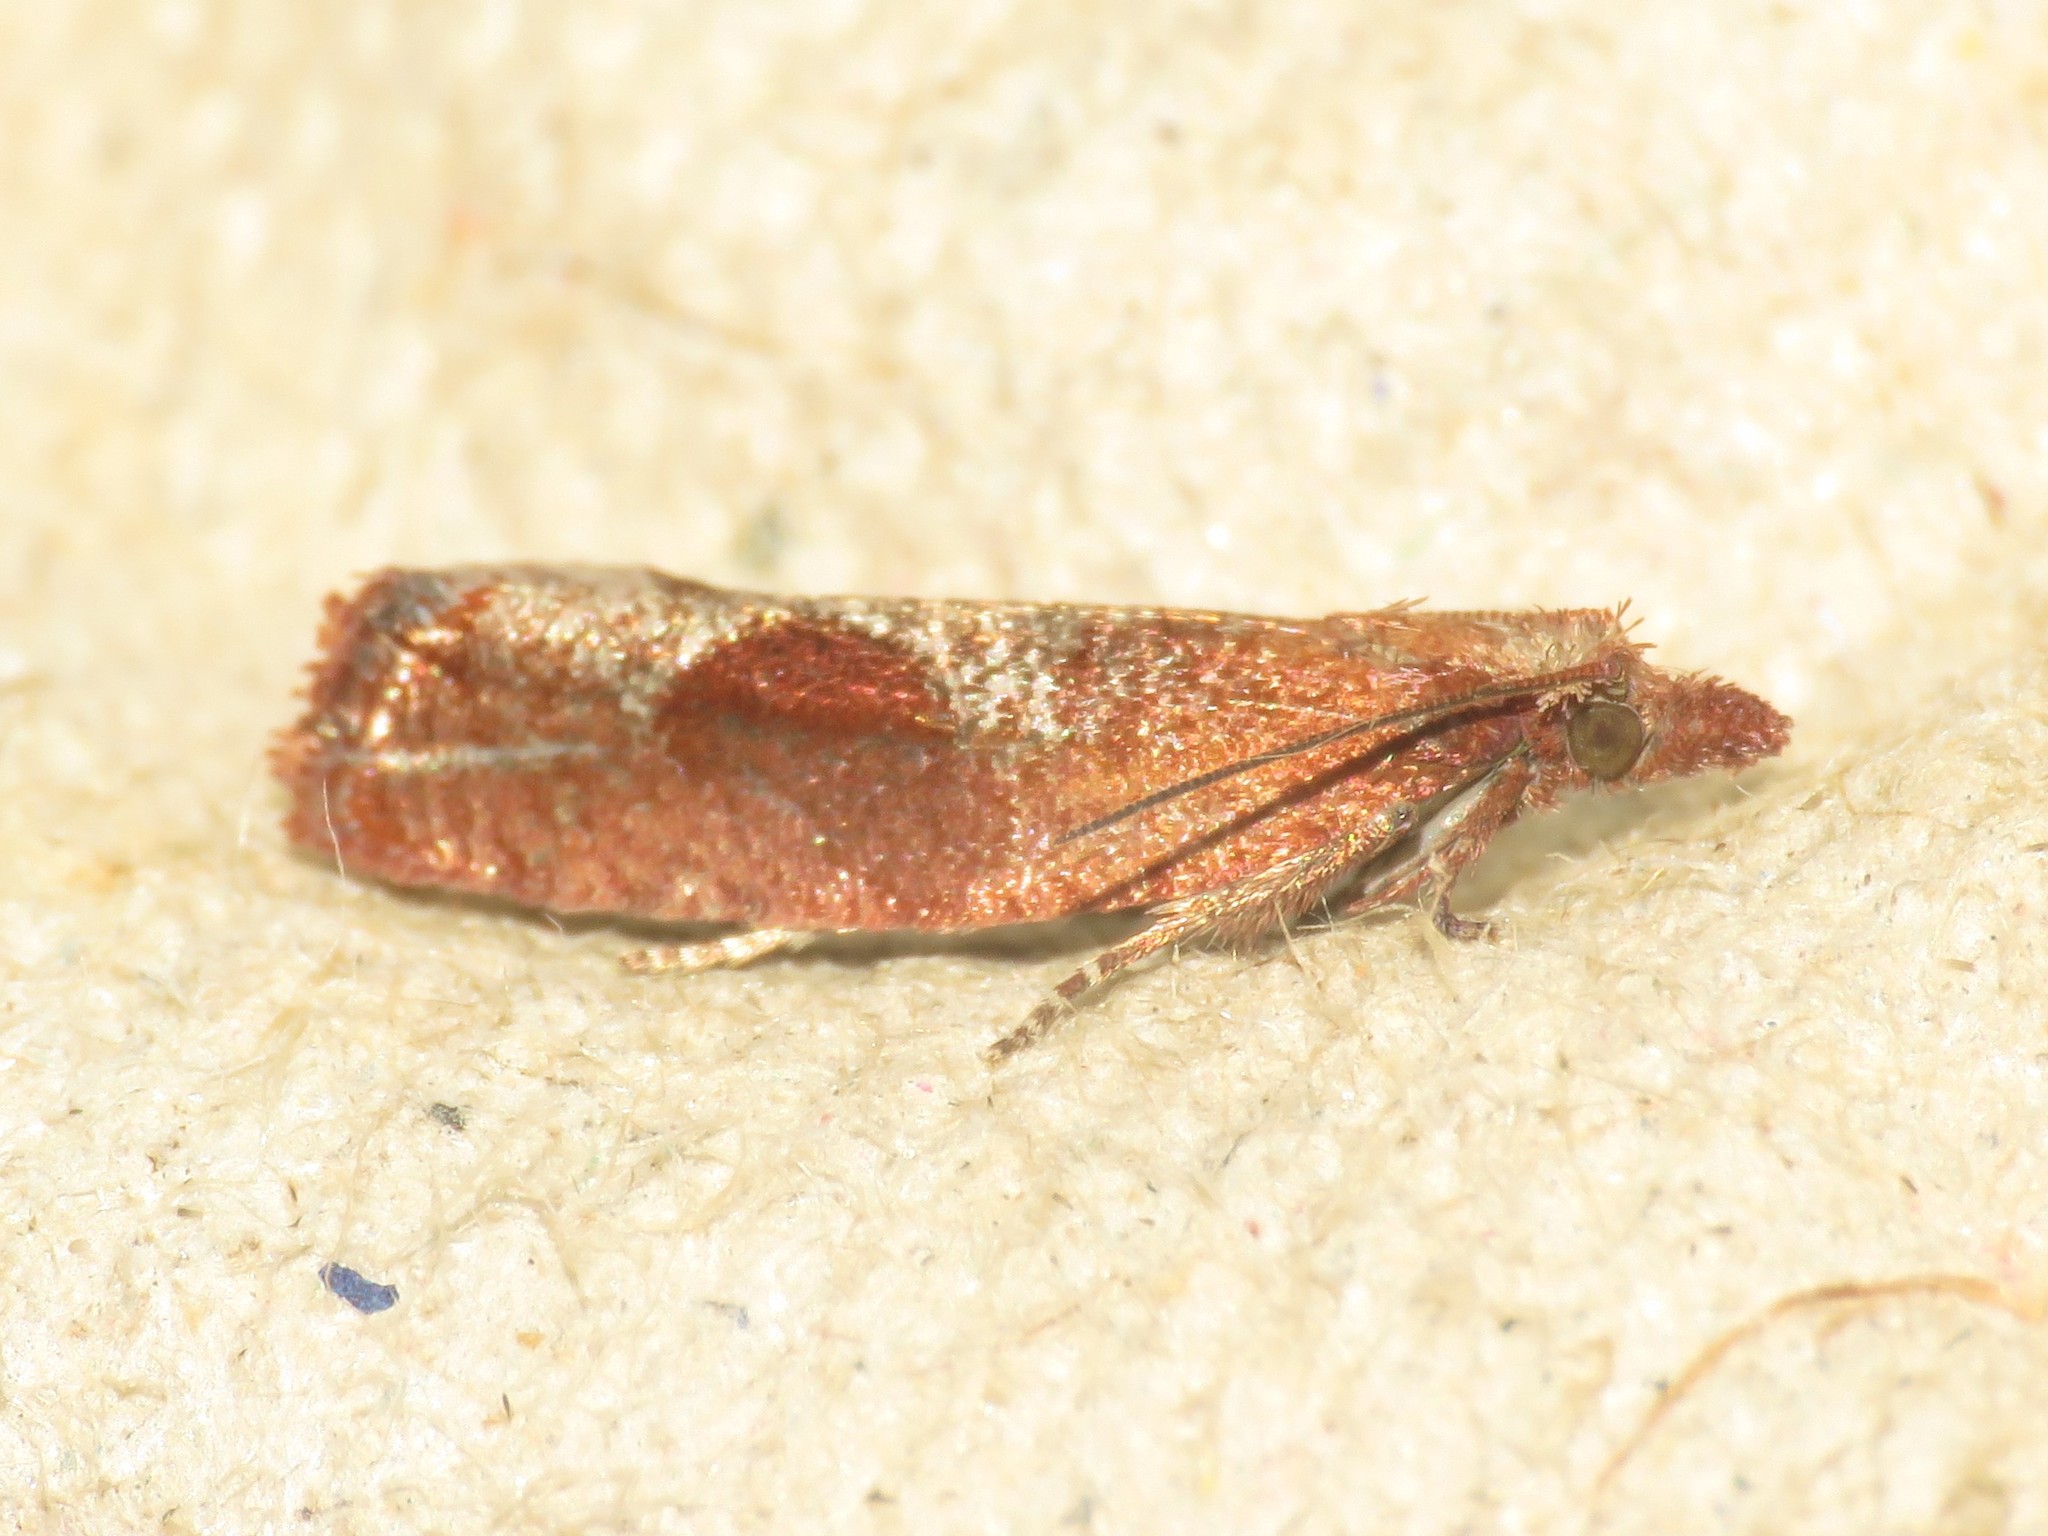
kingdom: Animalia
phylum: Arthropoda
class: Insecta
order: Lepidoptera
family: Tortricidae
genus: Epinotia
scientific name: Epinotia septemberana
